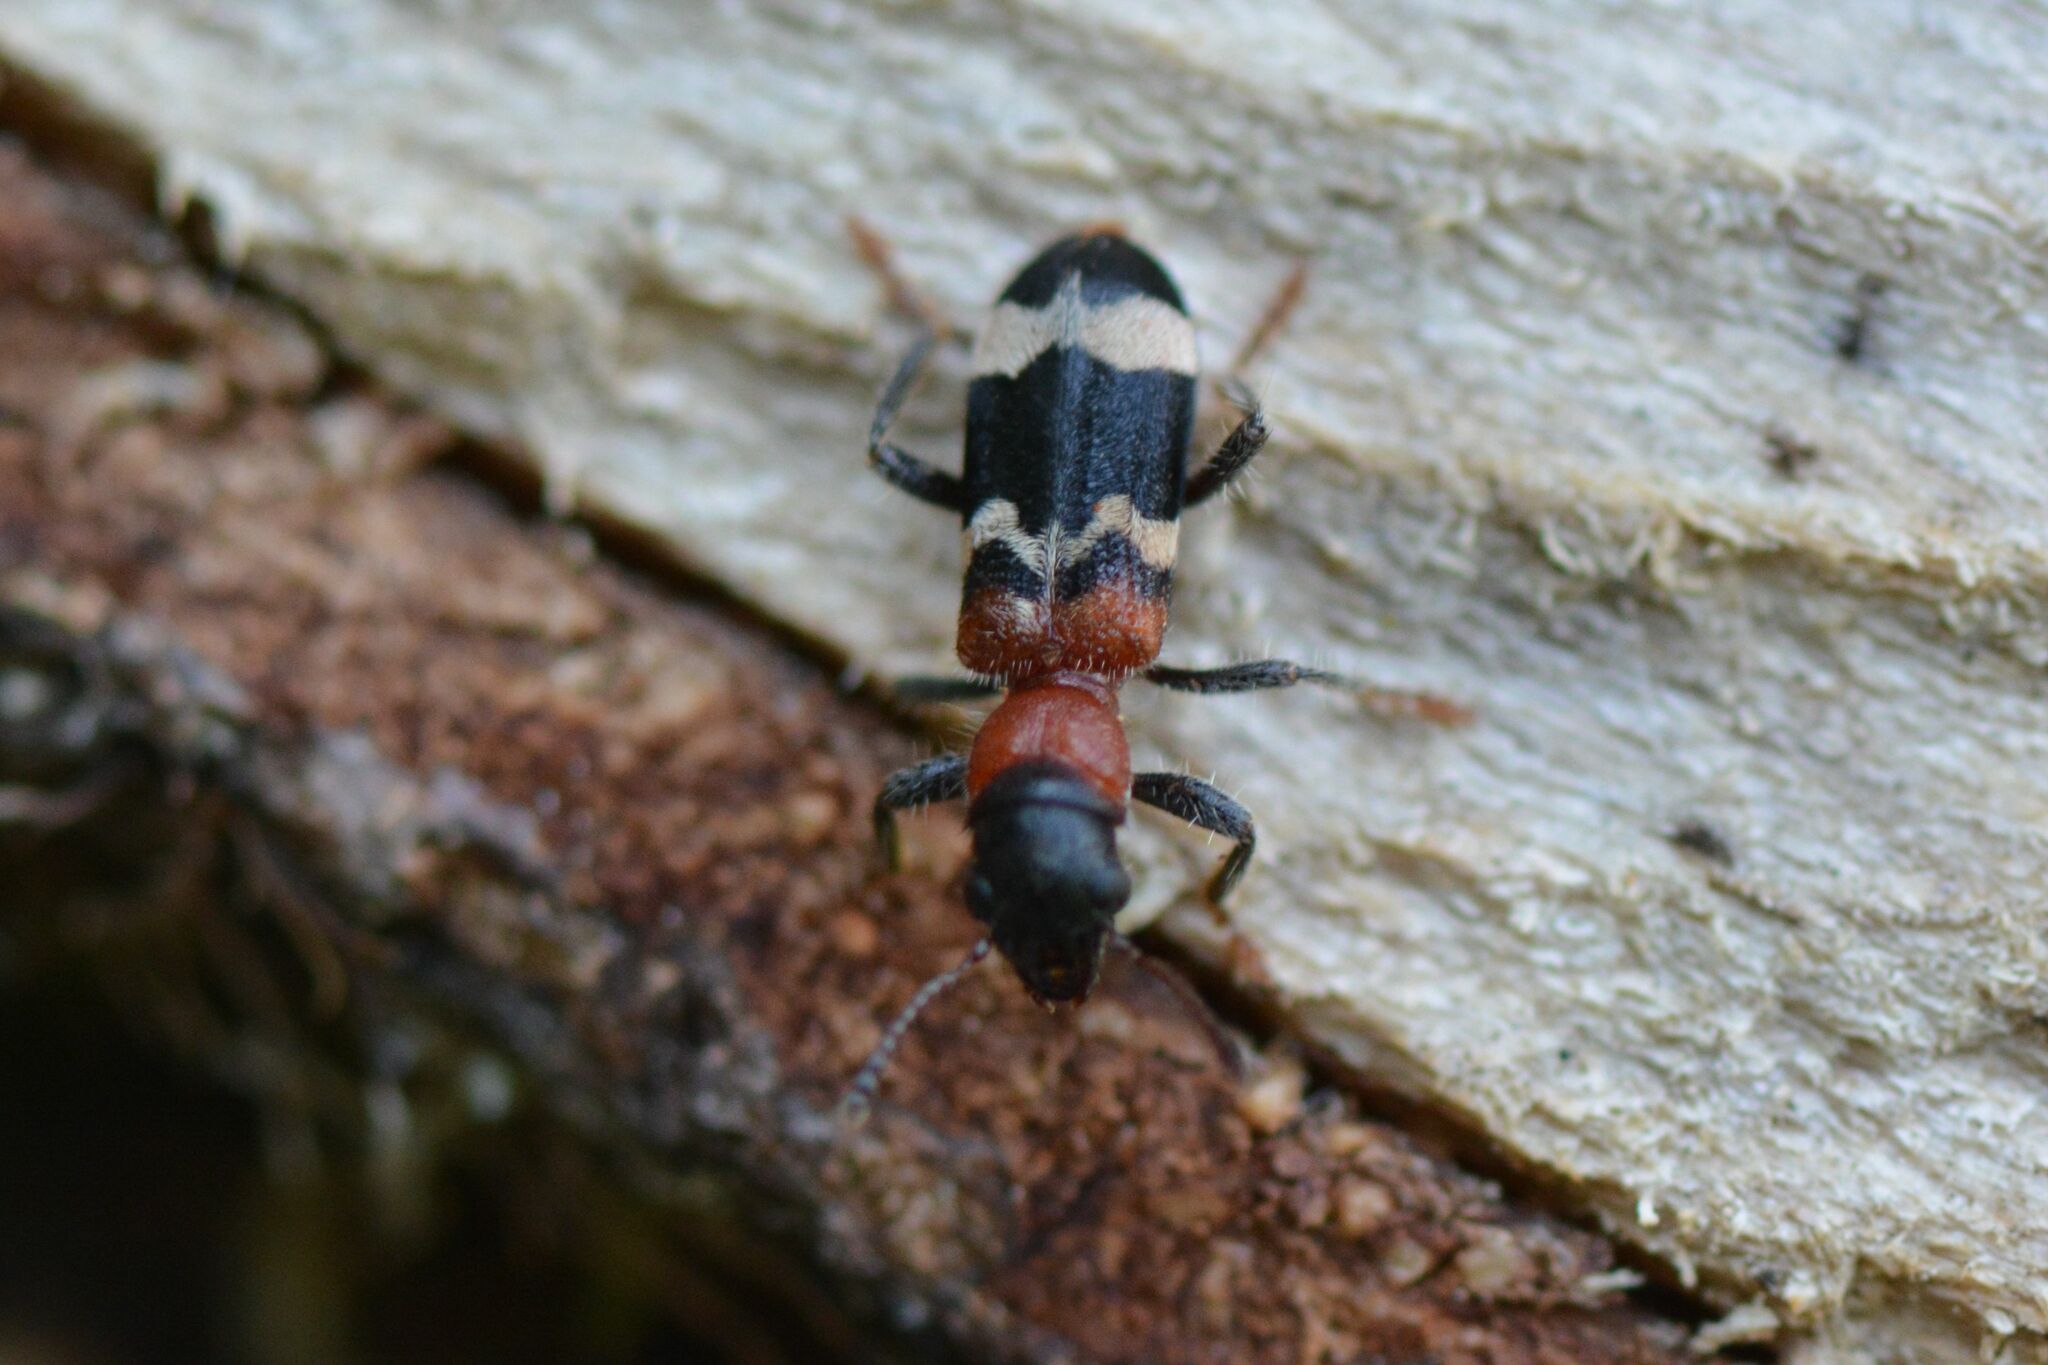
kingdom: Animalia
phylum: Arthropoda
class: Insecta
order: Coleoptera
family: Cleridae
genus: Thanasimus
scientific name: Thanasimus formicarius
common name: Ant beetle
